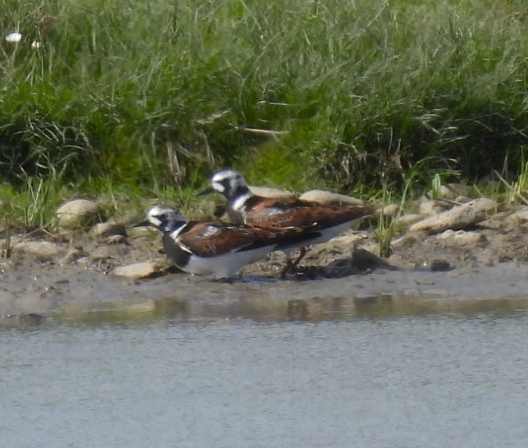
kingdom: Animalia
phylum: Chordata
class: Aves
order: Charadriiformes
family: Scolopacidae
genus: Arenaria
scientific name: Arenaria interpres
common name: Ruddy turnstone
